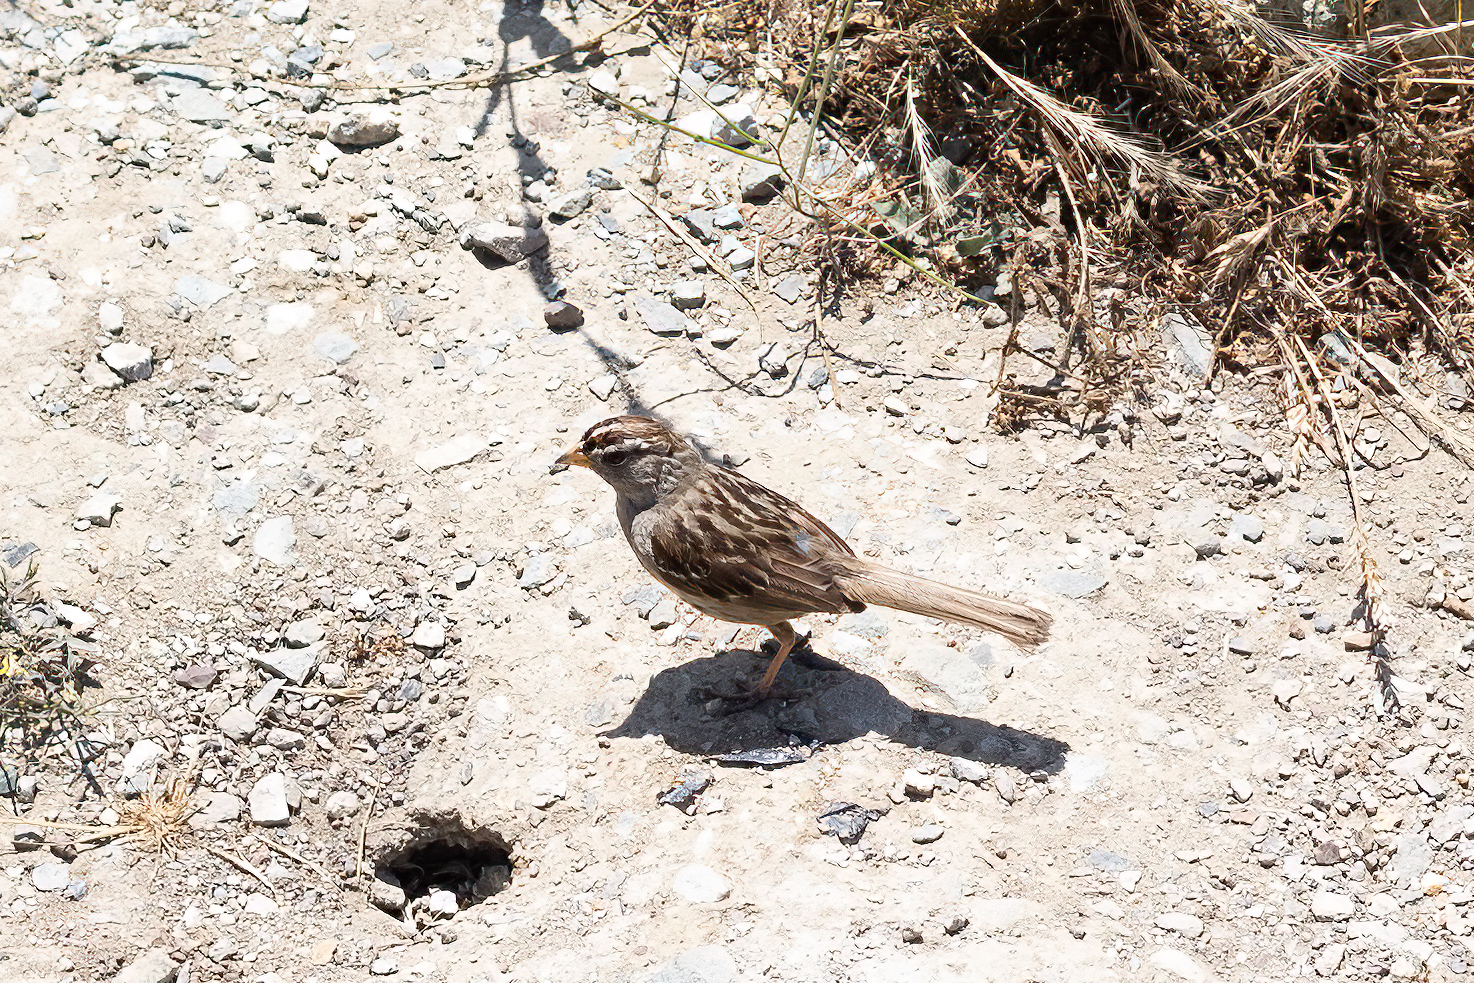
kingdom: Animalia
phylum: Chordata
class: Aves
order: Passeriformes
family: Passerellidae
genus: Zonotrichia
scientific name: Zonotrichia leucophrys
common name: White-crowned sparrow
